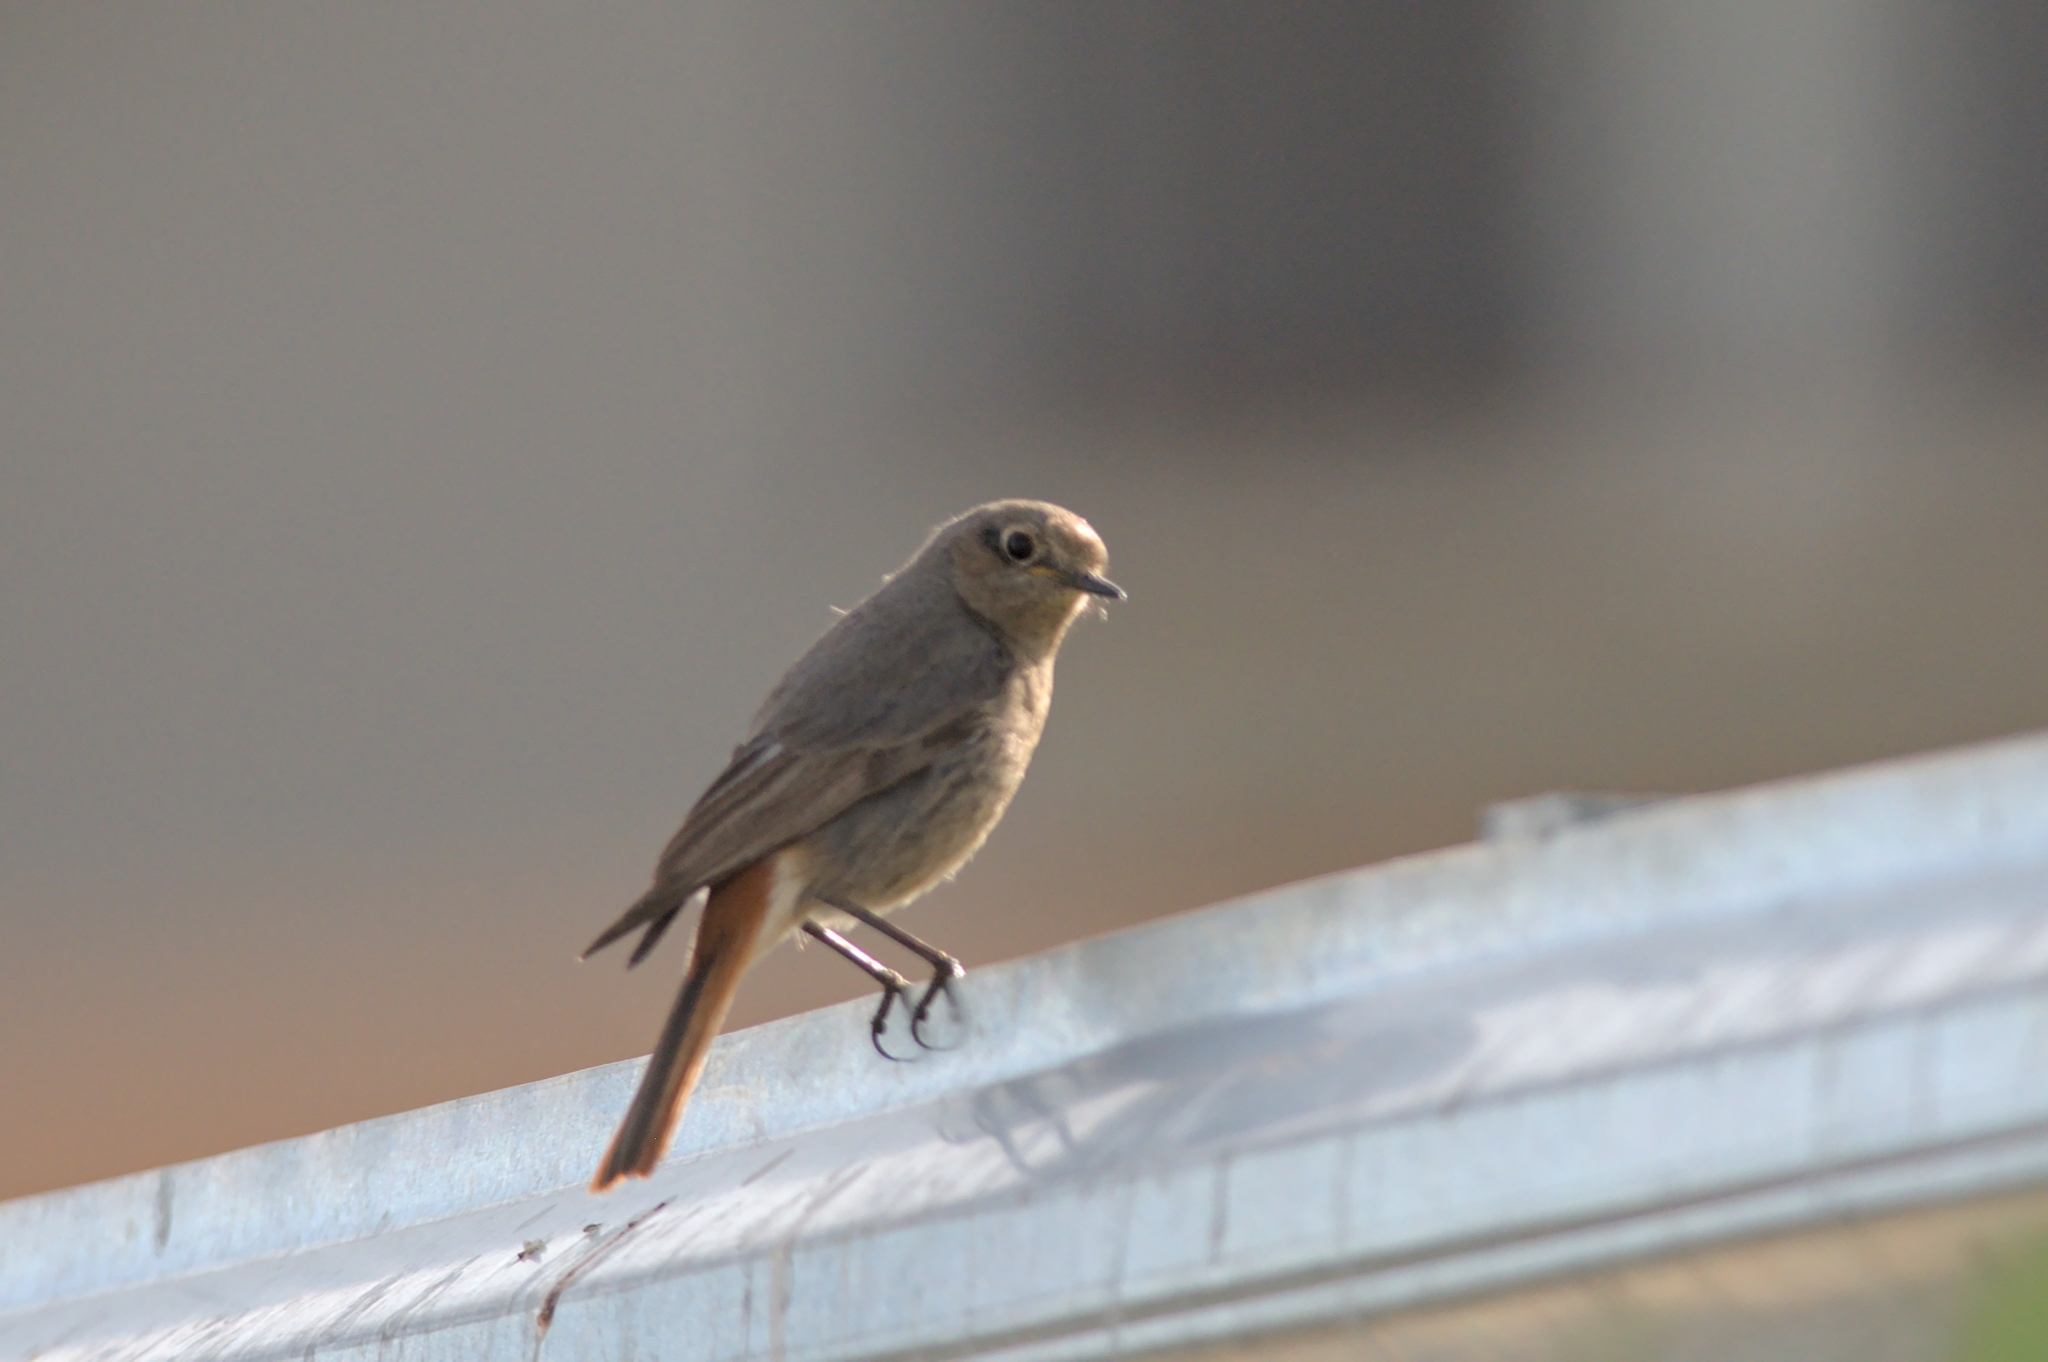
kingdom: Animalia
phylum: Chordata
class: Aves
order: Passeriformes
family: Muscicapidae
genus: Phoenicurus
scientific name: Phoenicurus ochruros
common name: Black redstart
